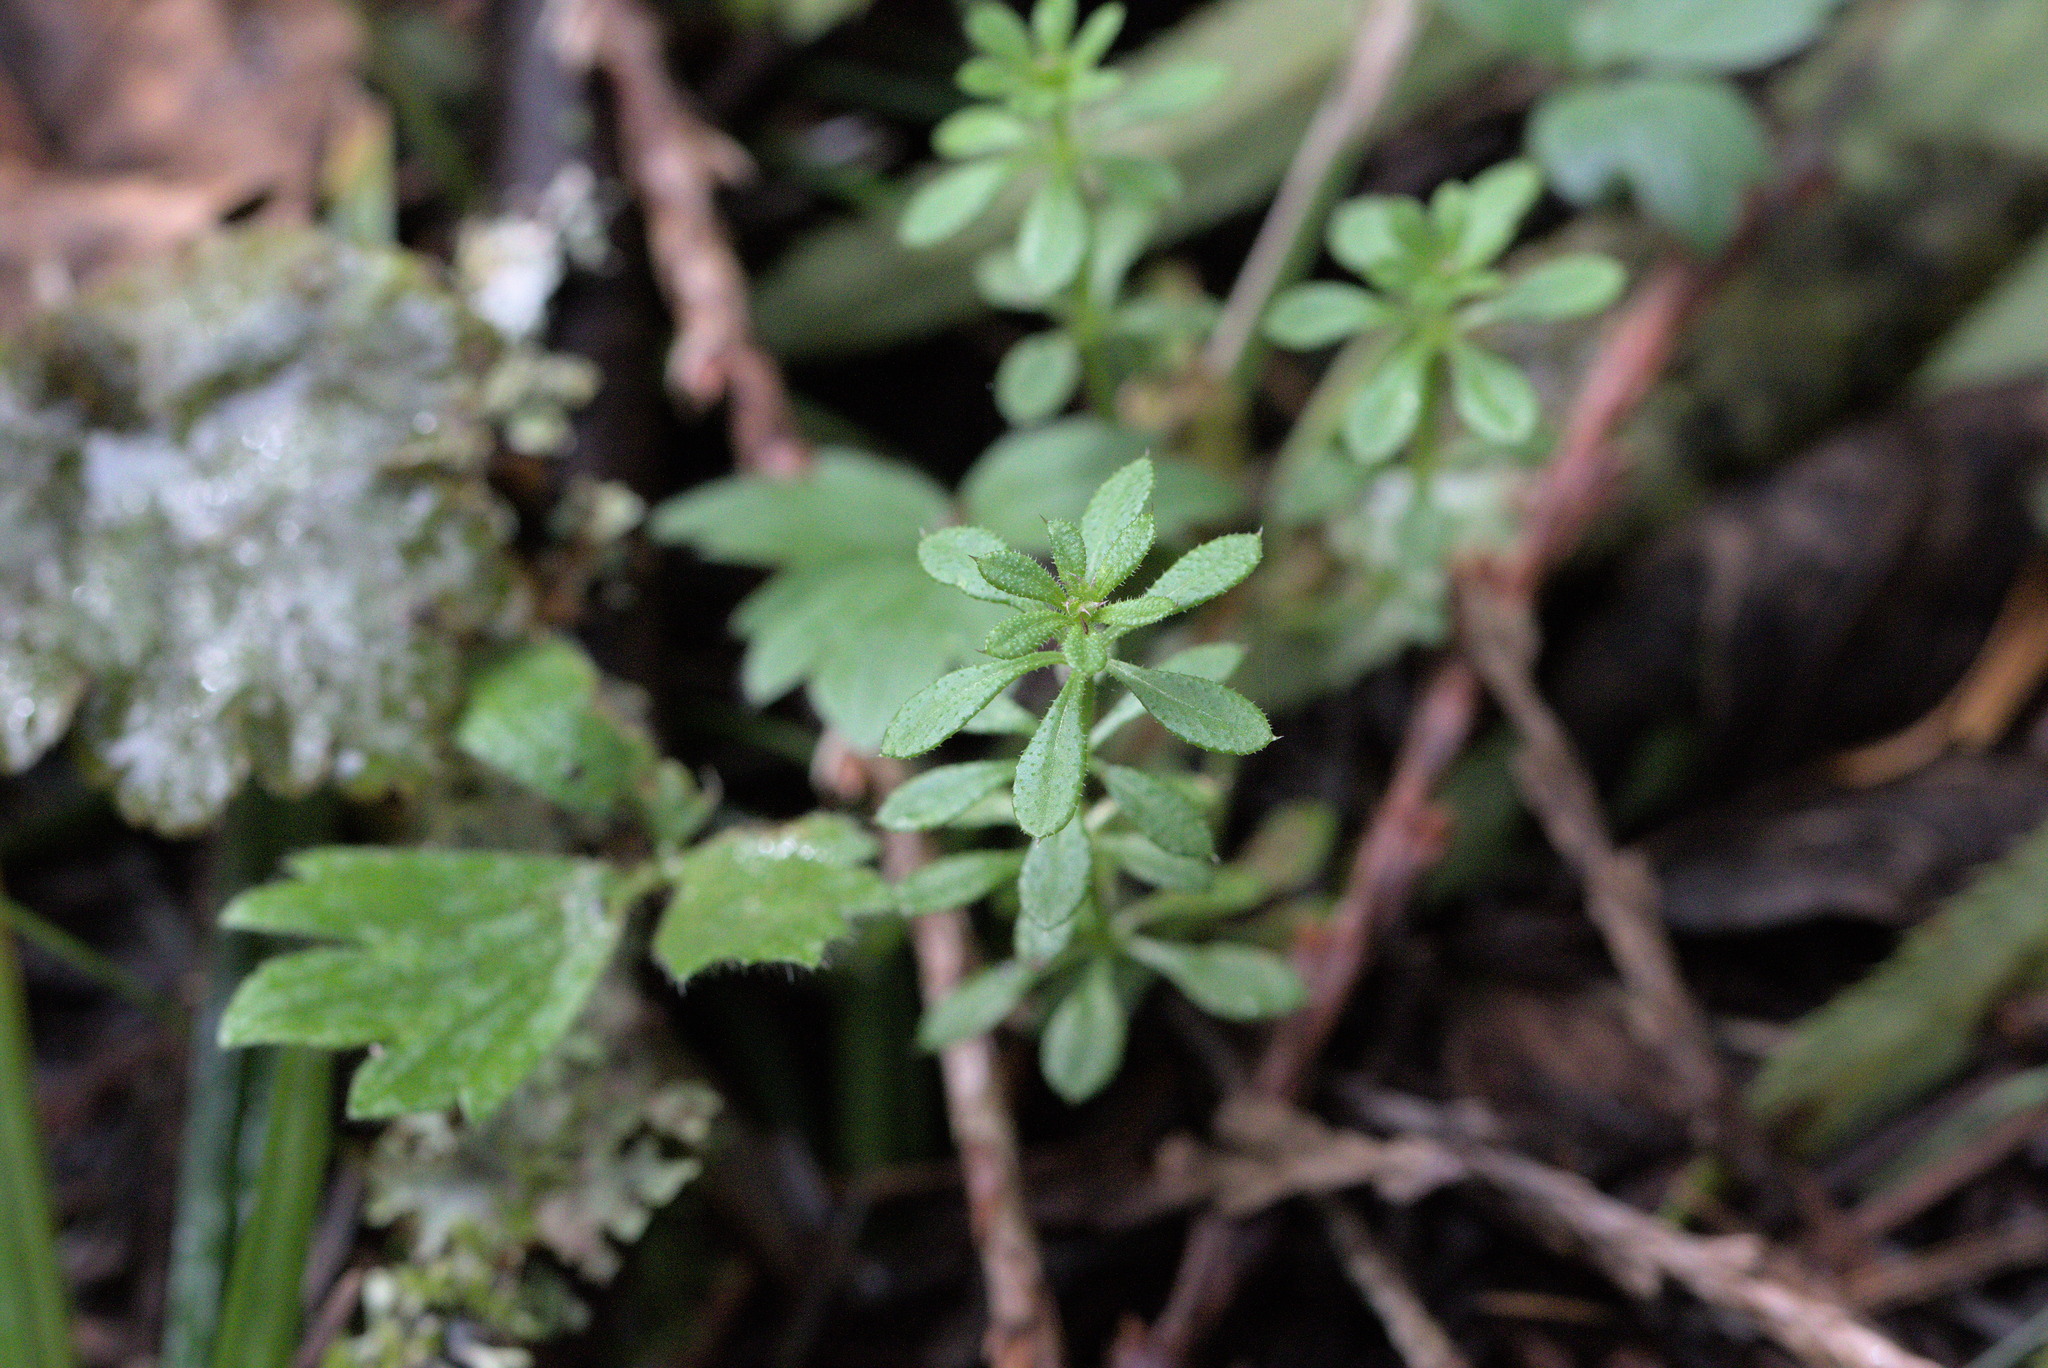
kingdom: Plantae
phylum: Tracheophyta
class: Magnoliopsida
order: Gentianales
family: Rubiaceae
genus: Galium
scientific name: Galium aparine
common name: Cleavers
